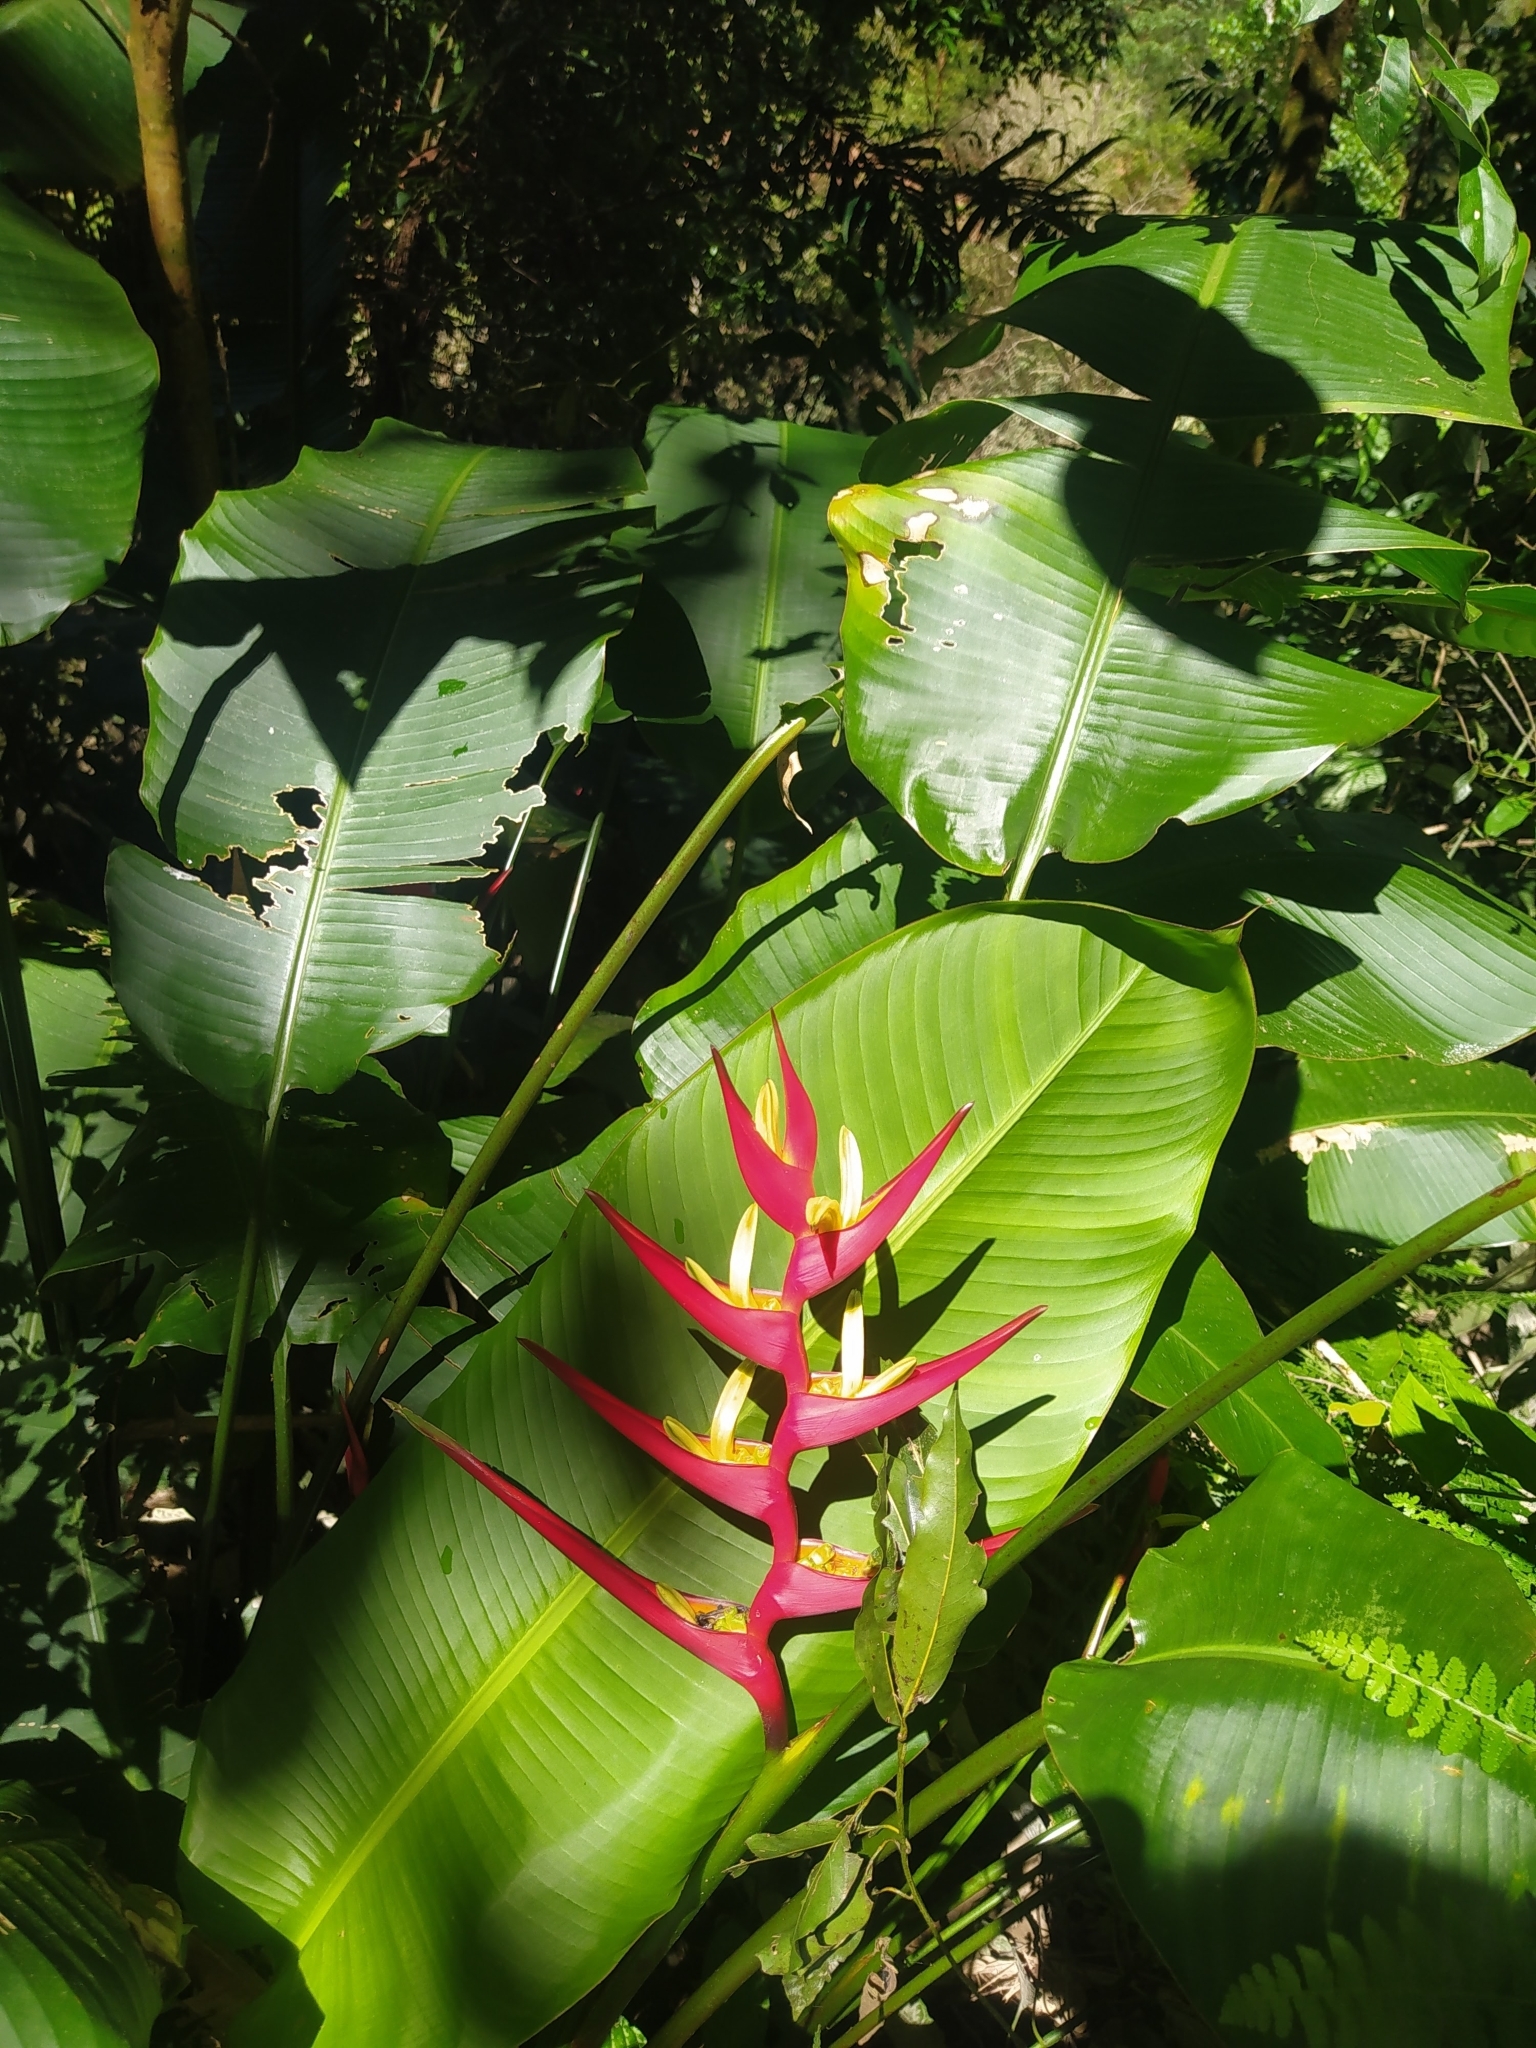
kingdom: Plantae
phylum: Tracheophyta
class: Liliopsida
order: Zingiberales
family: Heliconiaceae
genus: Heliconia
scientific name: Heliconia farinosa
